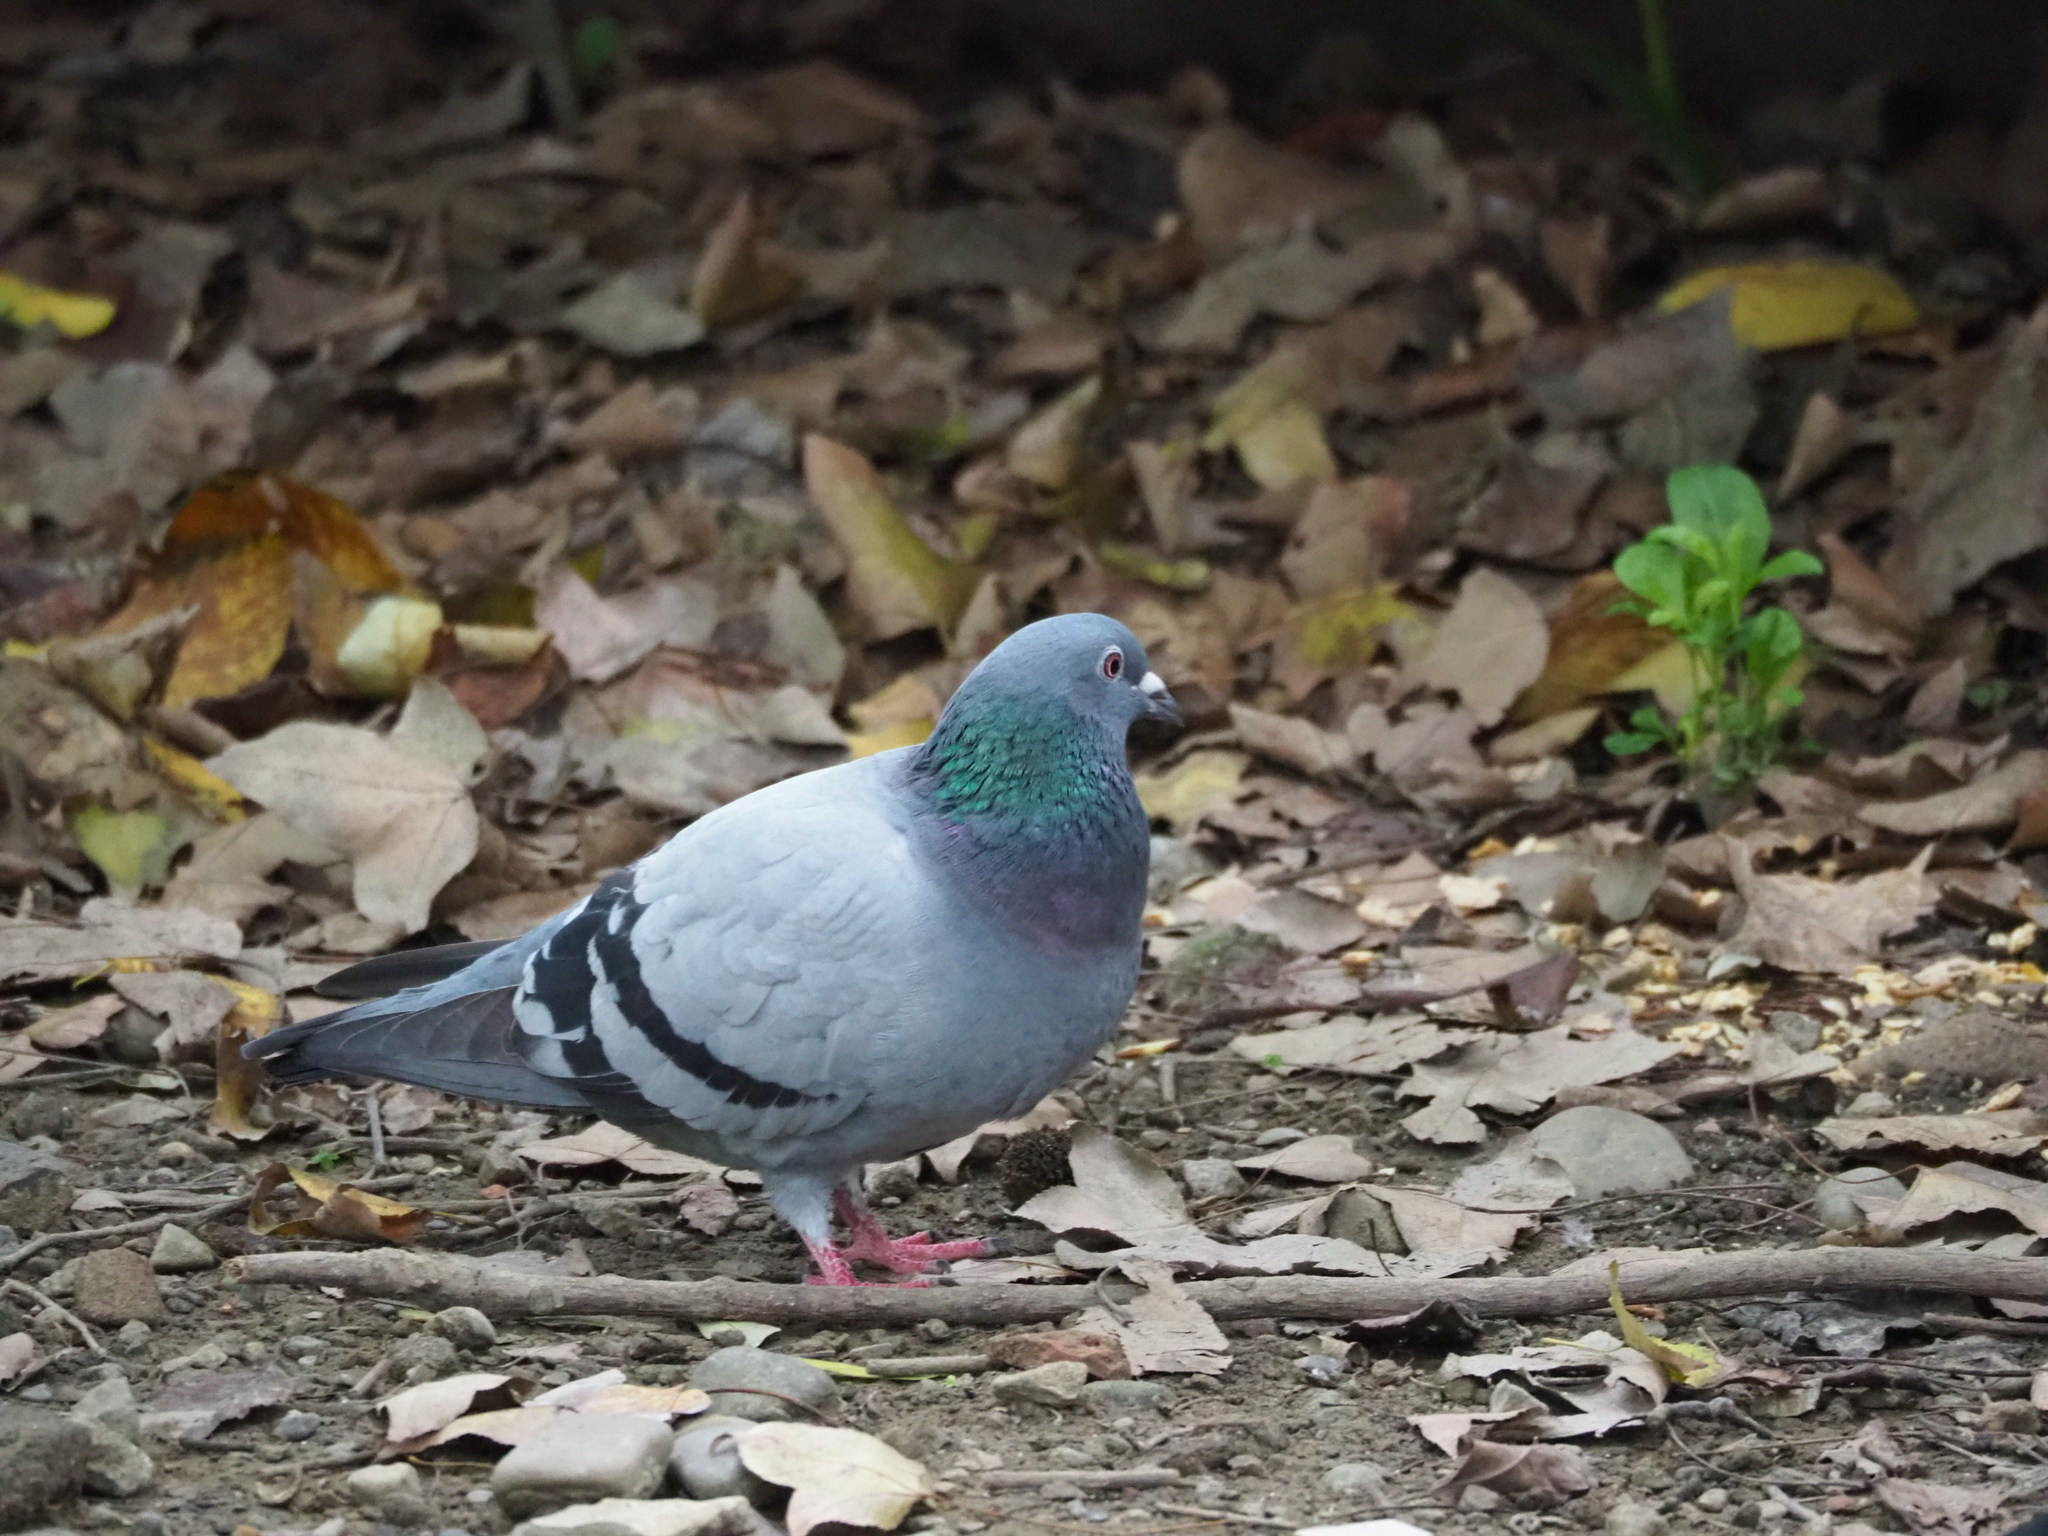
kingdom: Animalia
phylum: Chordata
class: Aves
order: Columbiformes
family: Columbidae
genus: Columba
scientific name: Columba livia
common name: Rock pigeon
